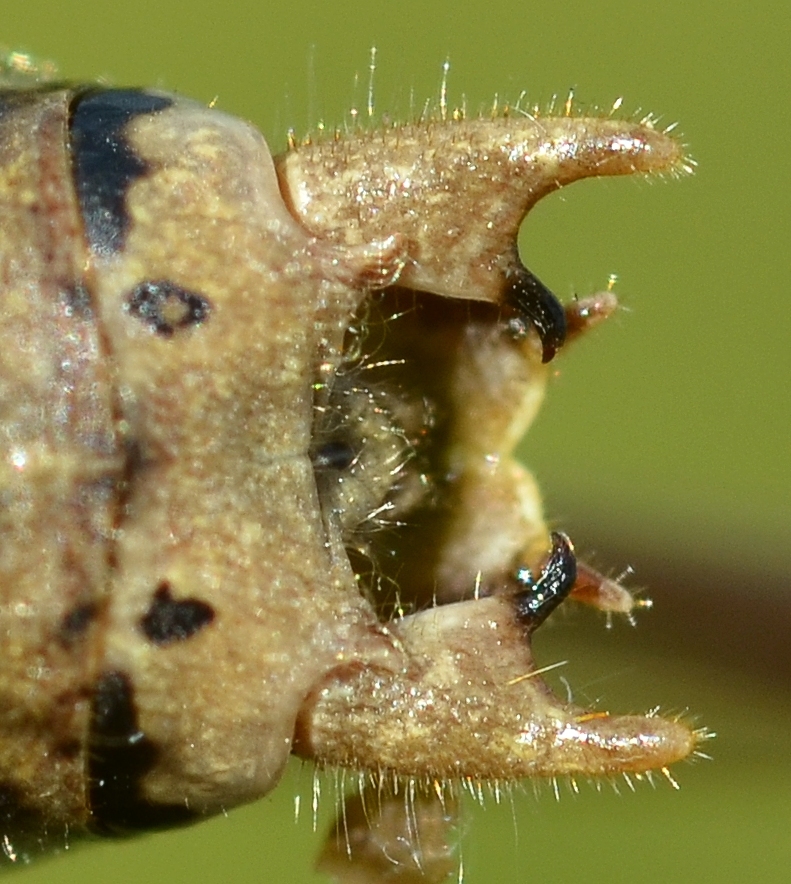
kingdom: Animalia
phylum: Arthropoda
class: Insecta
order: Orthoptera
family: Tettigoniidae
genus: Metrioptera
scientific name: Metrioptera saussuriana
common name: Purple meadow bush-cricket
